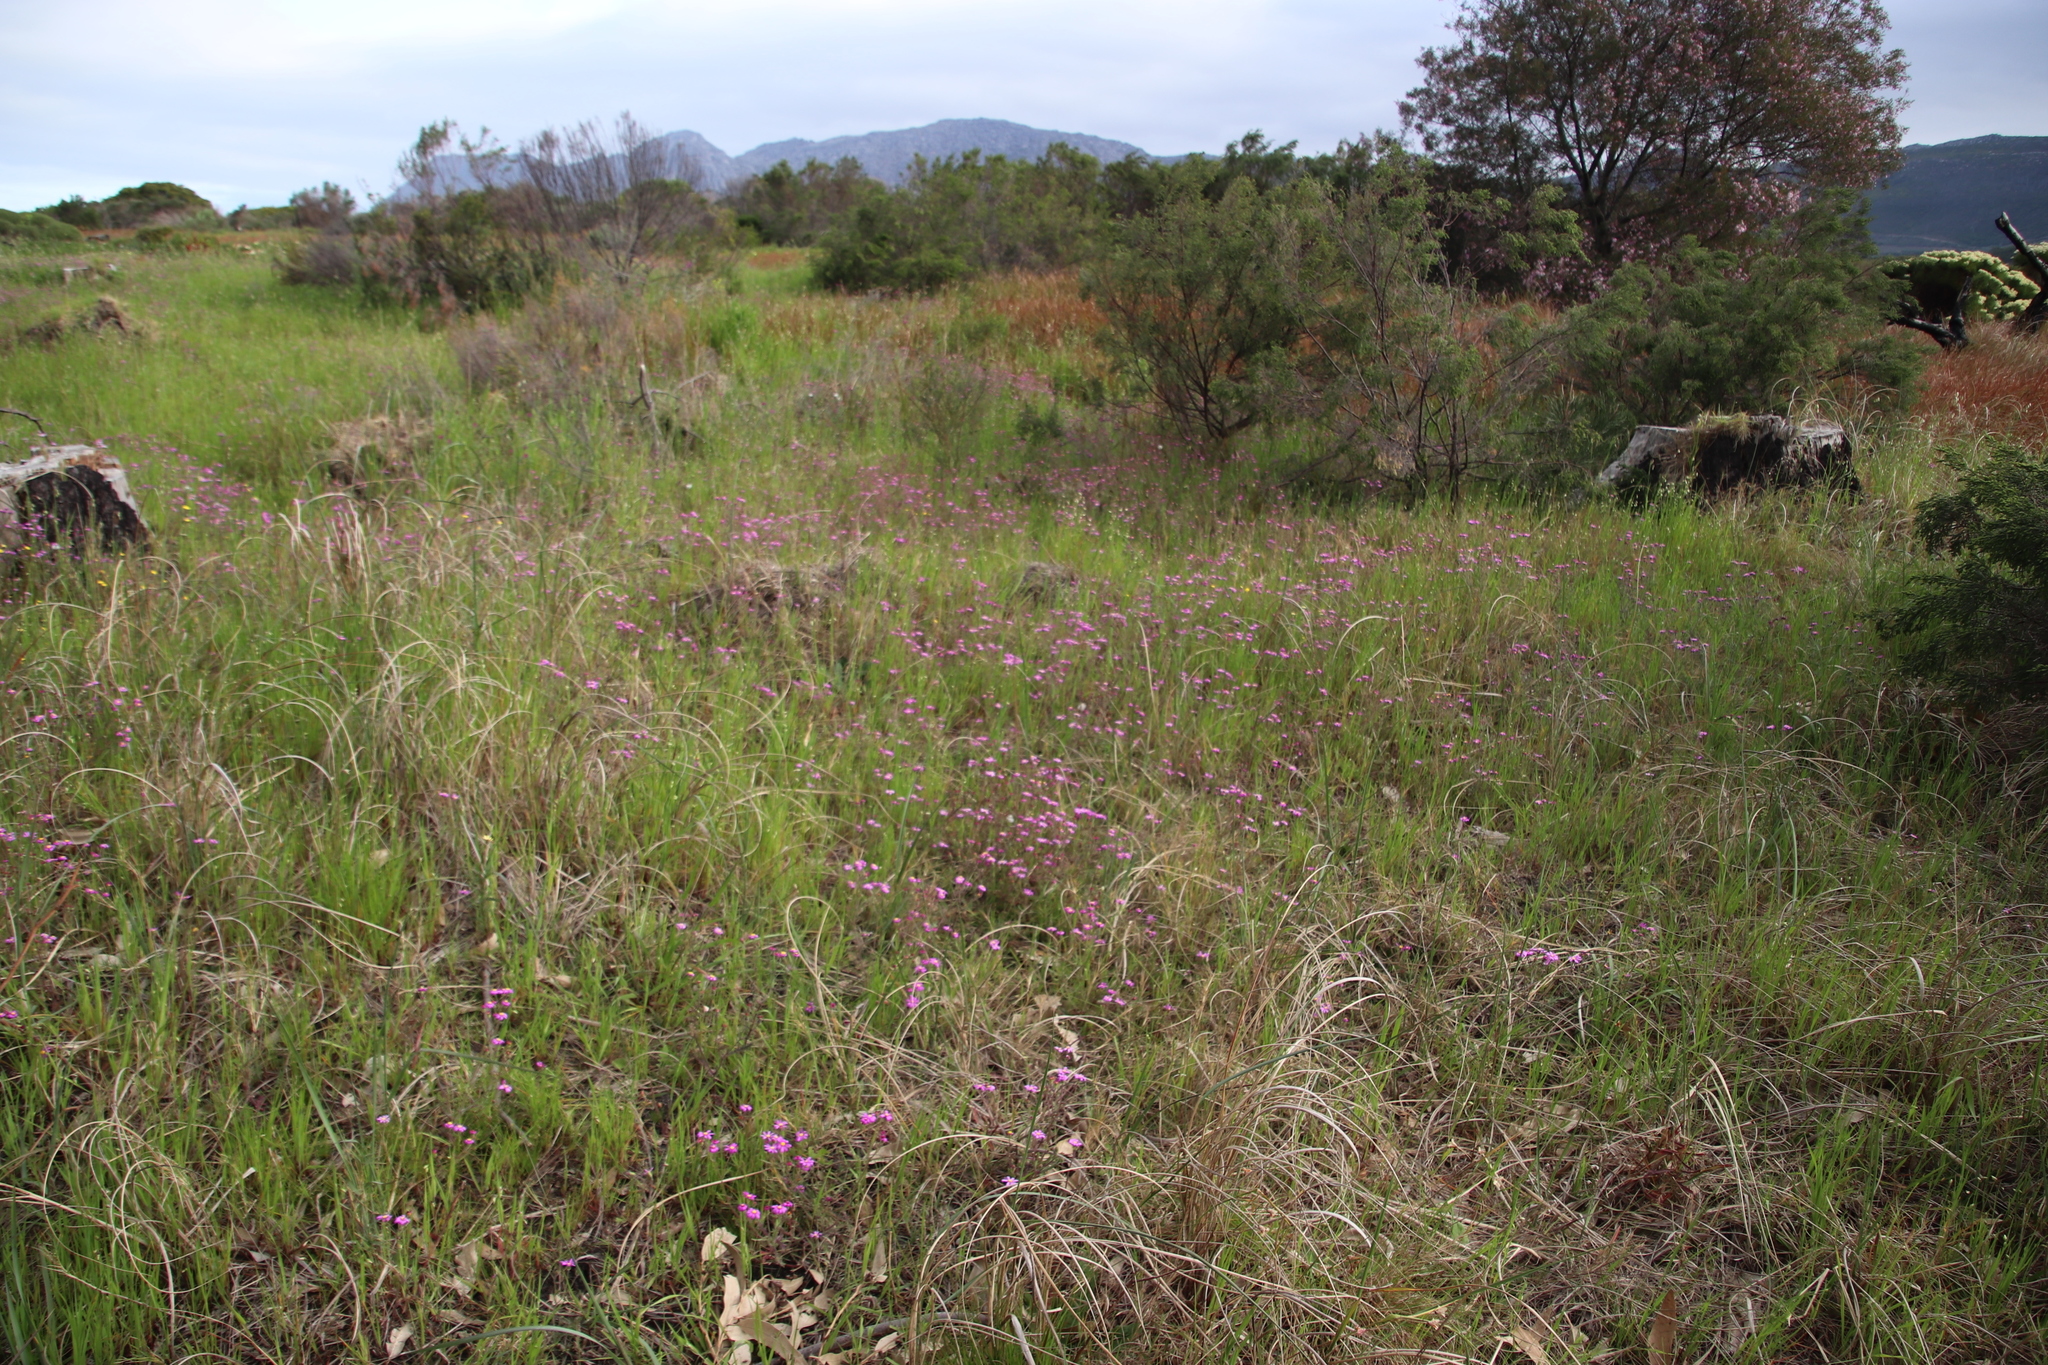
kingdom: Plantae
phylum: Tracheophyta
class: Magnoliopsida
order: Asterales
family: Asteraceae
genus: Senecio
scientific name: Senecio arenarius
